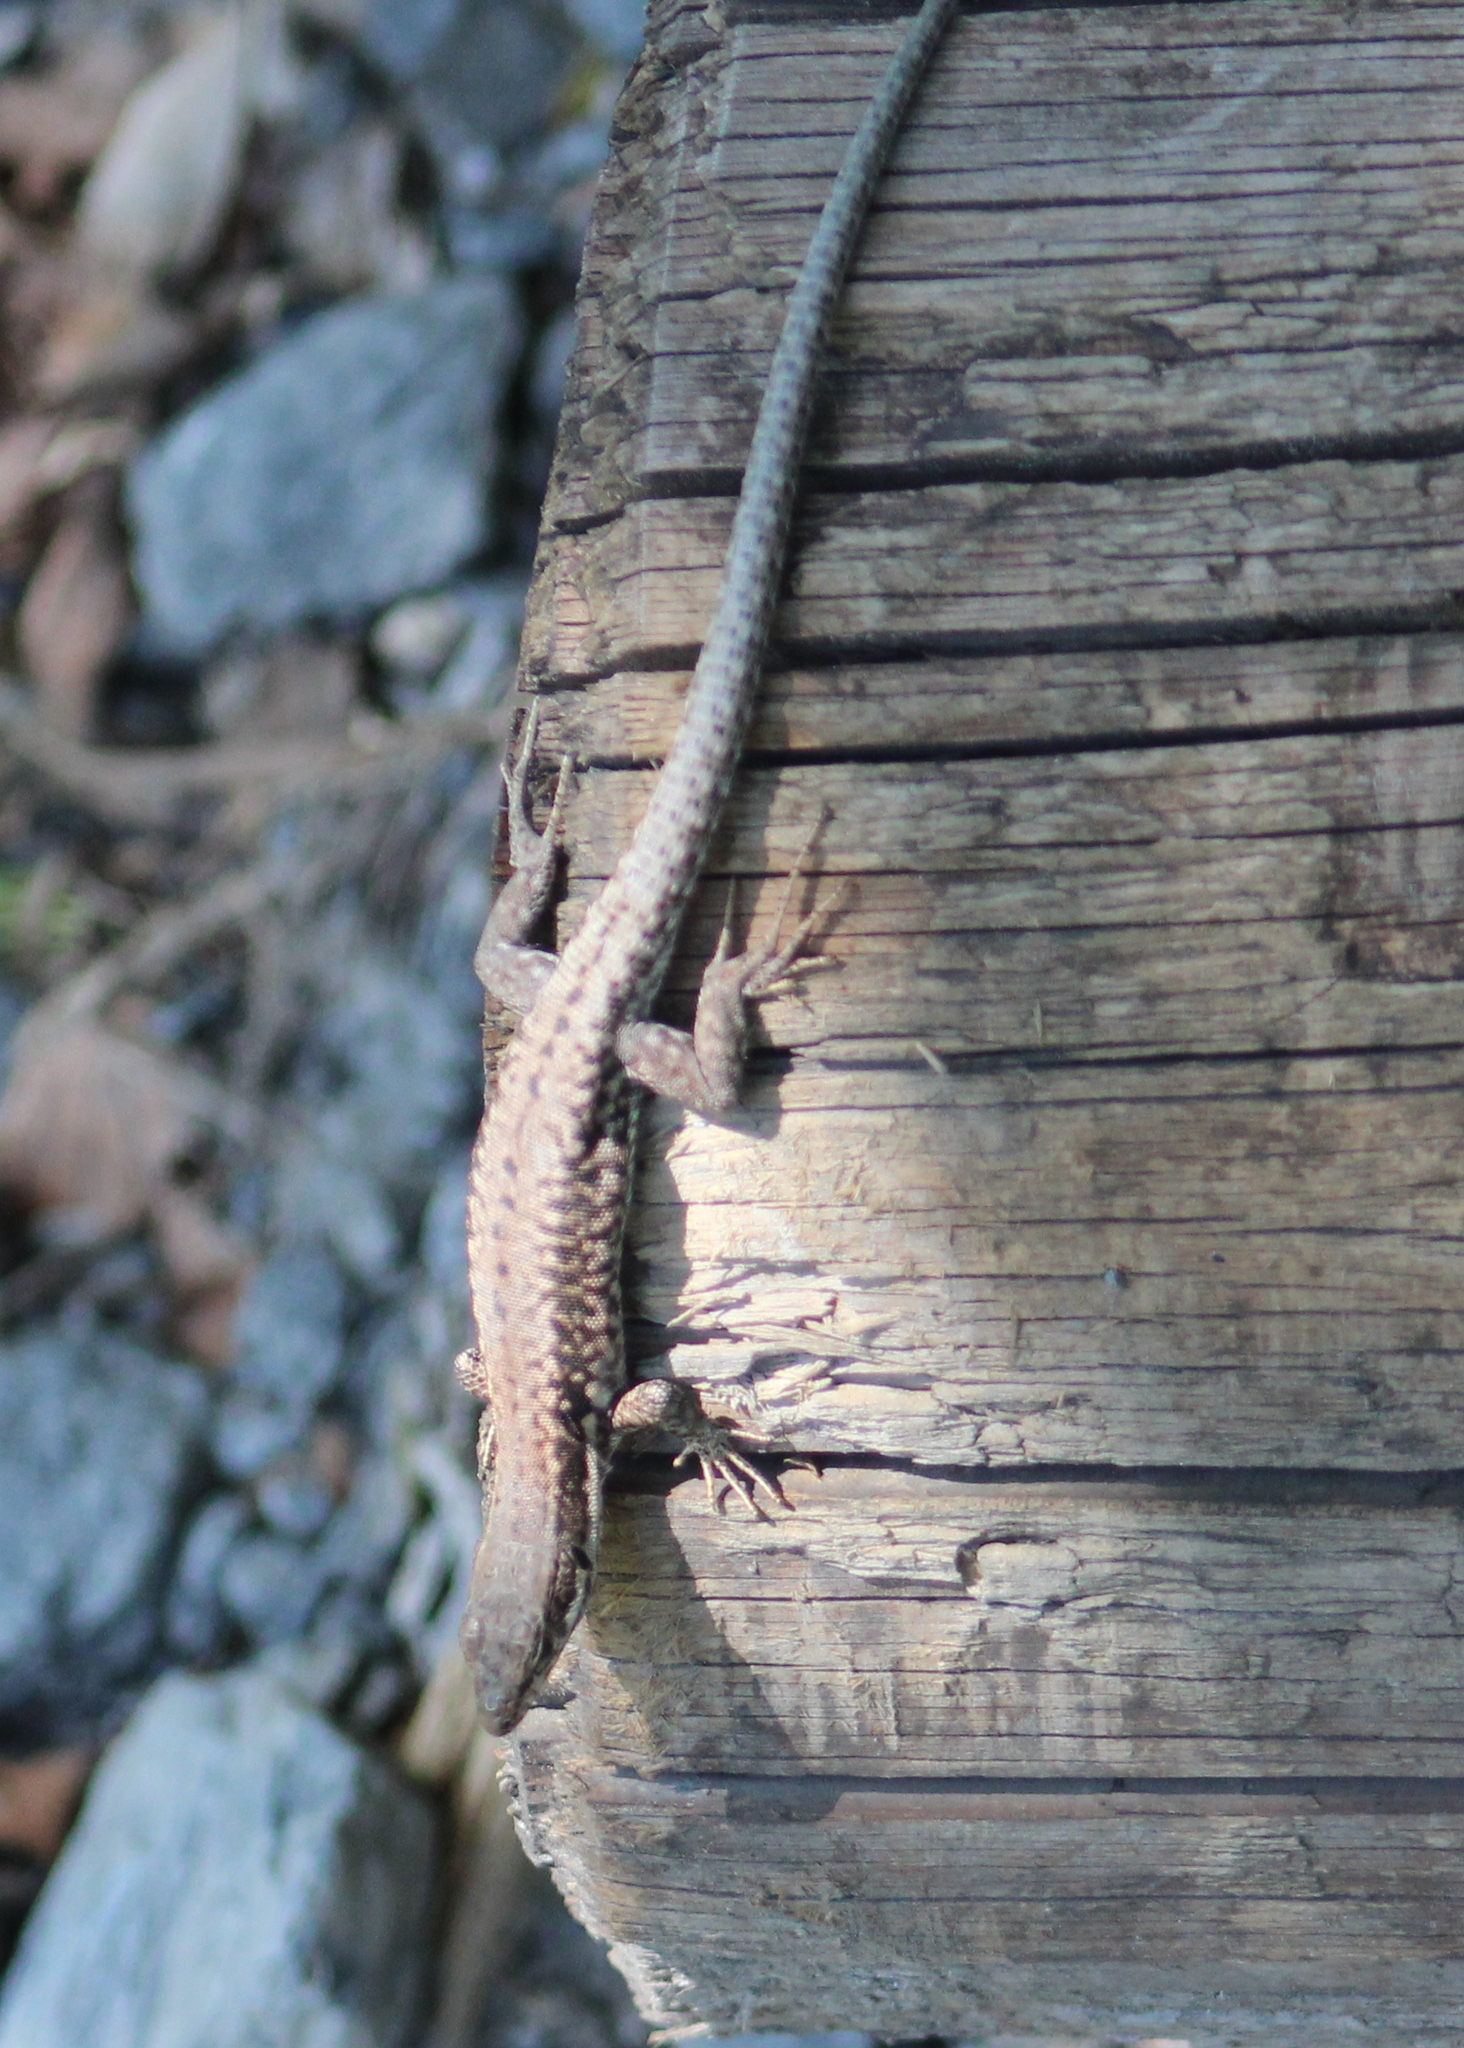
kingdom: Animalia
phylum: Chordata
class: Squamata
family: Lacertidae
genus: Podarcis
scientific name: Podarcis muralis
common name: Common wall lizard
